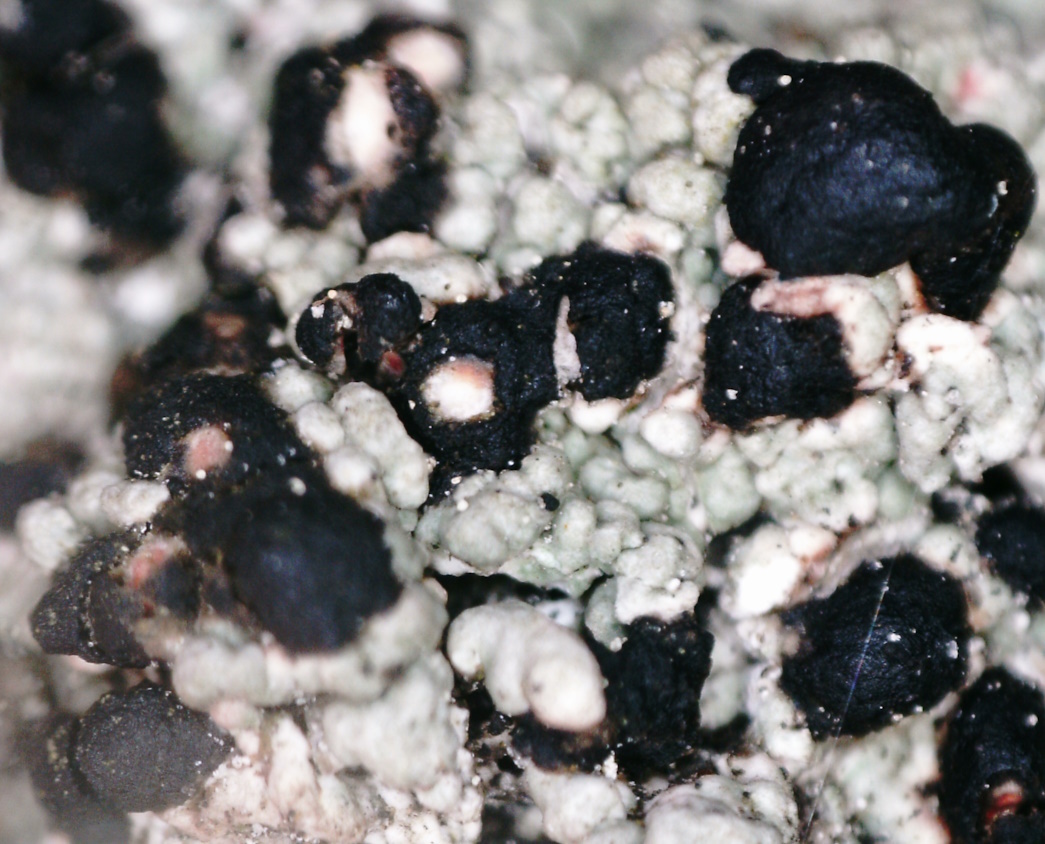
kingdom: Fungi
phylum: Ascomycota
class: Lecanoromycetes
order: Lecanorales
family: Tephromelataceae
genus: Mycoblastus
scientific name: Mycoblastus sanguinarius
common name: Bloody-heart lichen
